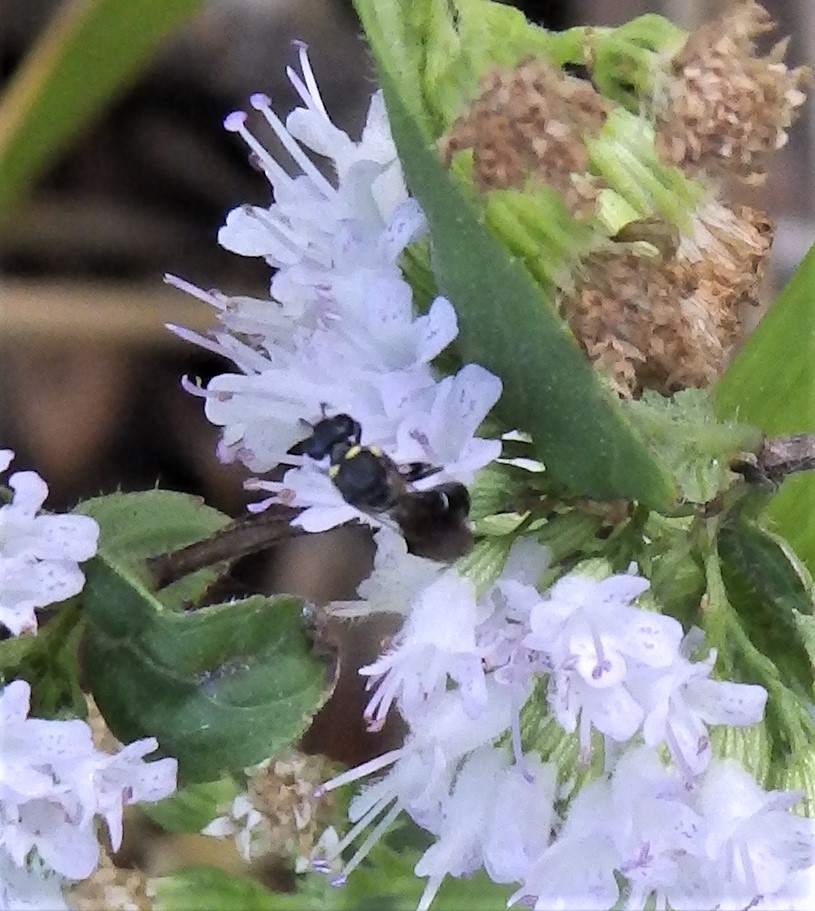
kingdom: Animalia
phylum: Arthropoda
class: Insecta
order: Hymenoptera
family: Colletidae
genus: Hylaeus
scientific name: Hylaeus modestus
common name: Yellow-faced bee
